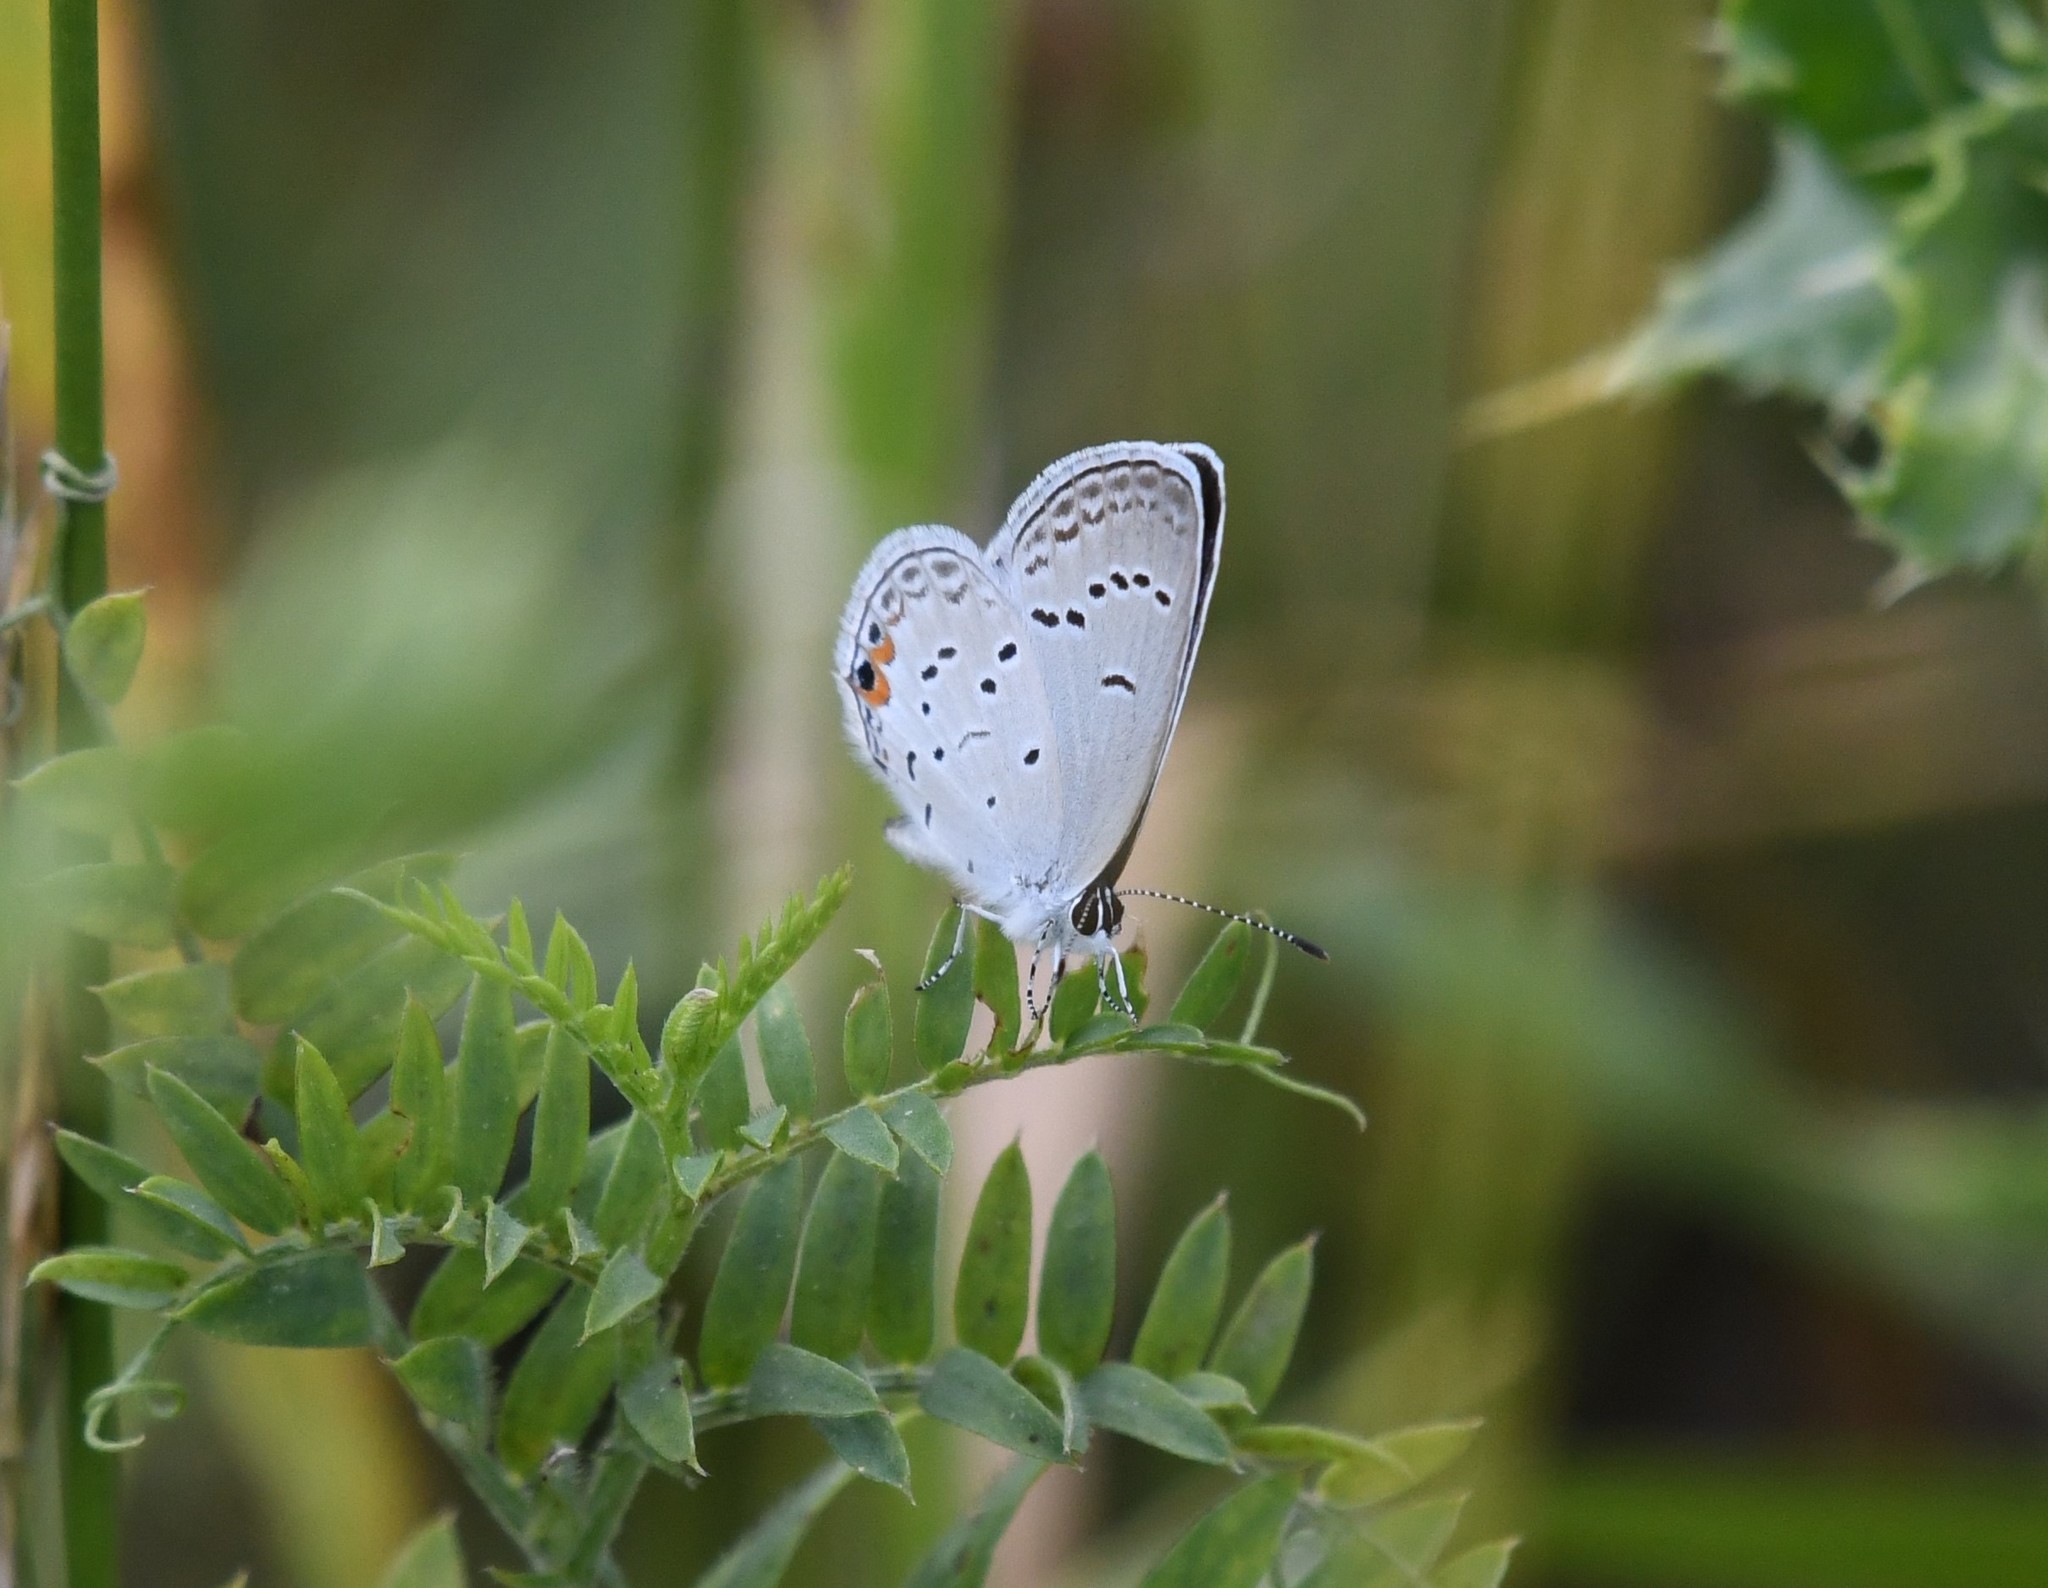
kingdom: Animalia
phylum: Arthropoda
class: Insecta
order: Lepidoptera
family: Lycaenidae
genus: Elkalyce
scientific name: Elkalyce comyntas
